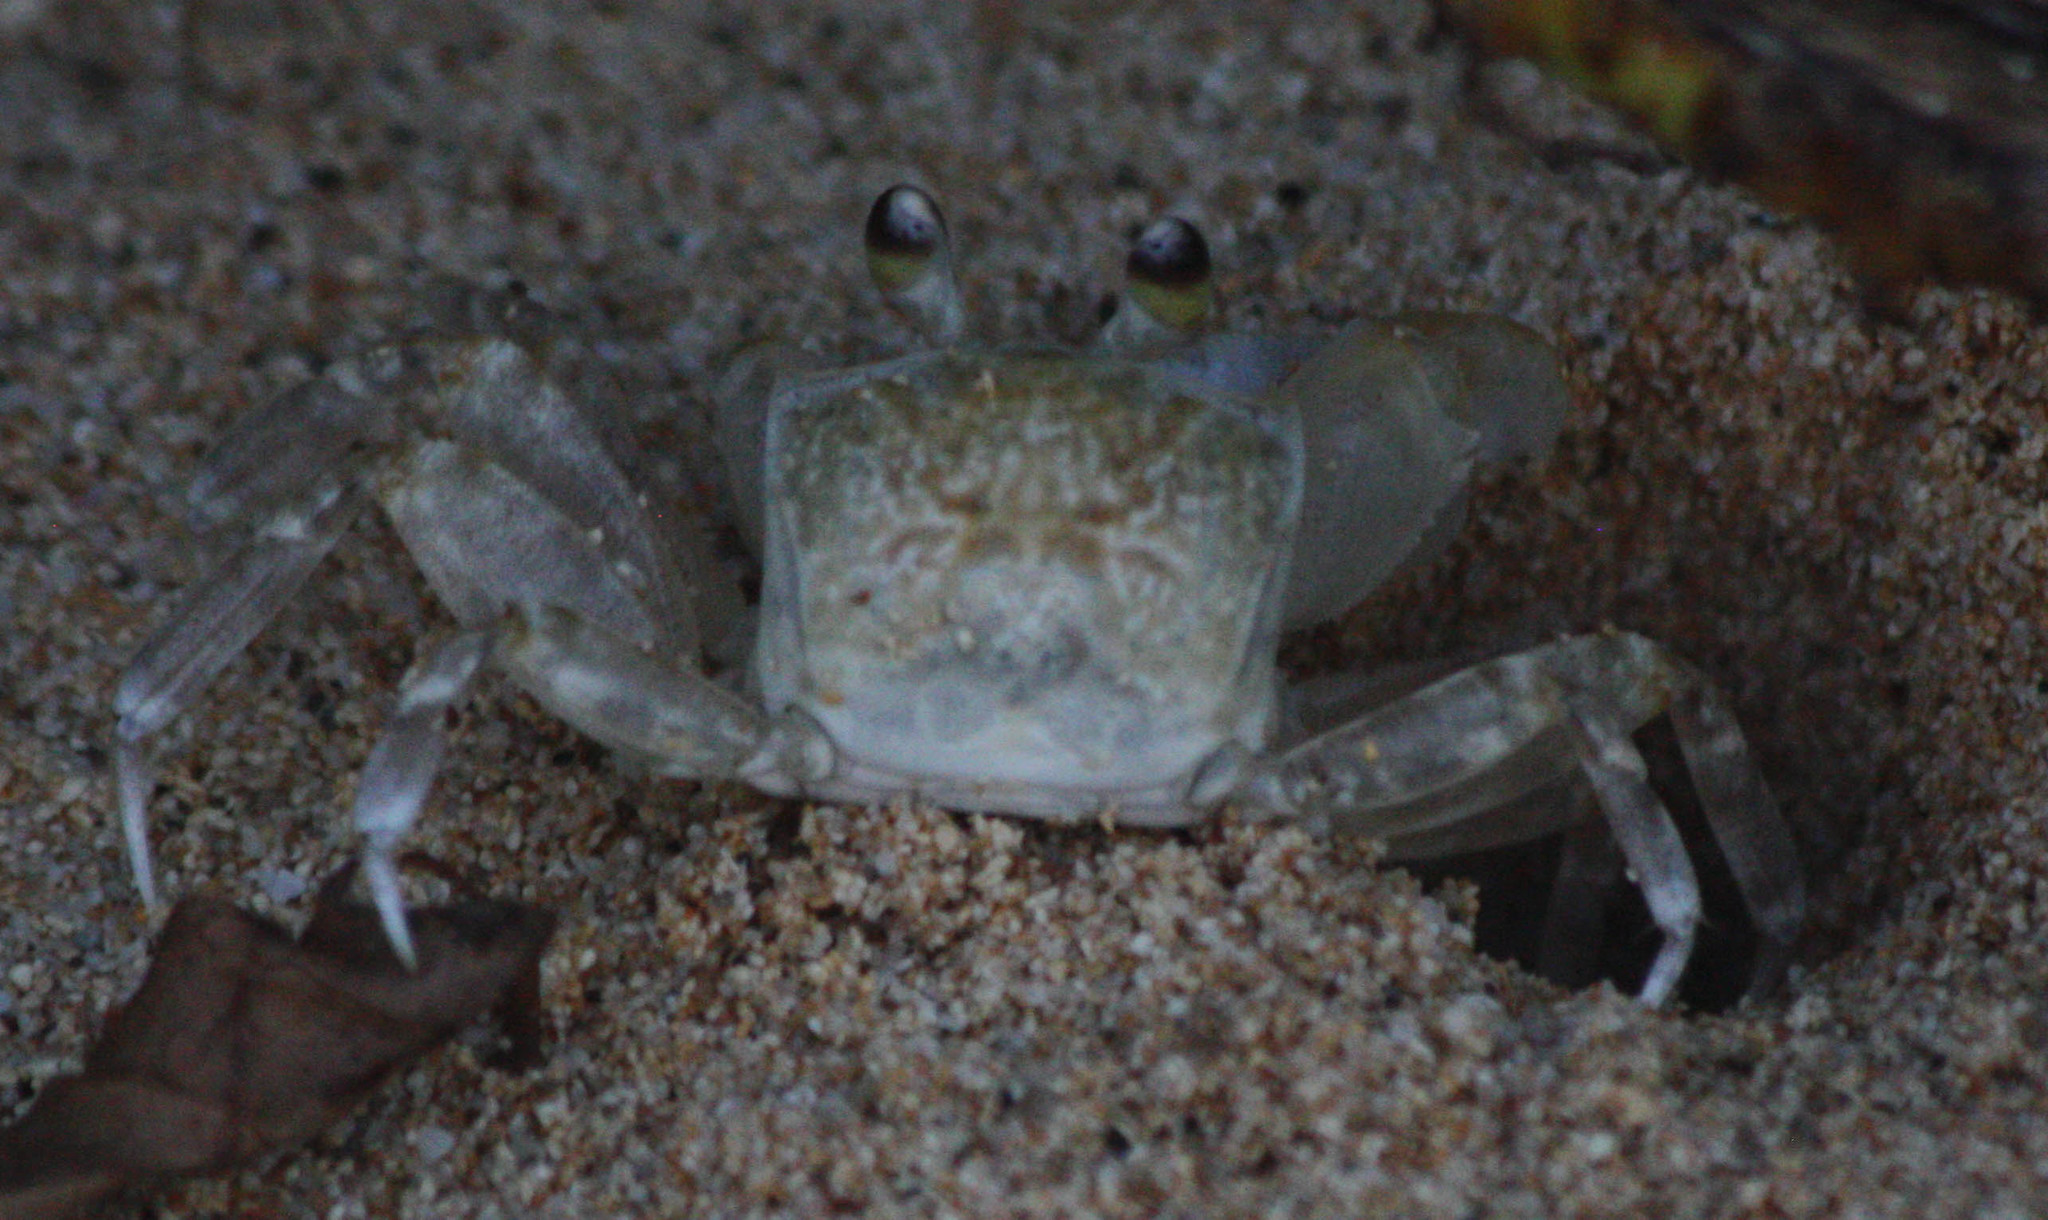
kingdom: Animalia
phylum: Arthropoda
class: Malacostraca
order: Decapoda
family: Ocypodidae
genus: Ocypode
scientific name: Ocypode pallidula
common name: Pallid ghost crab
